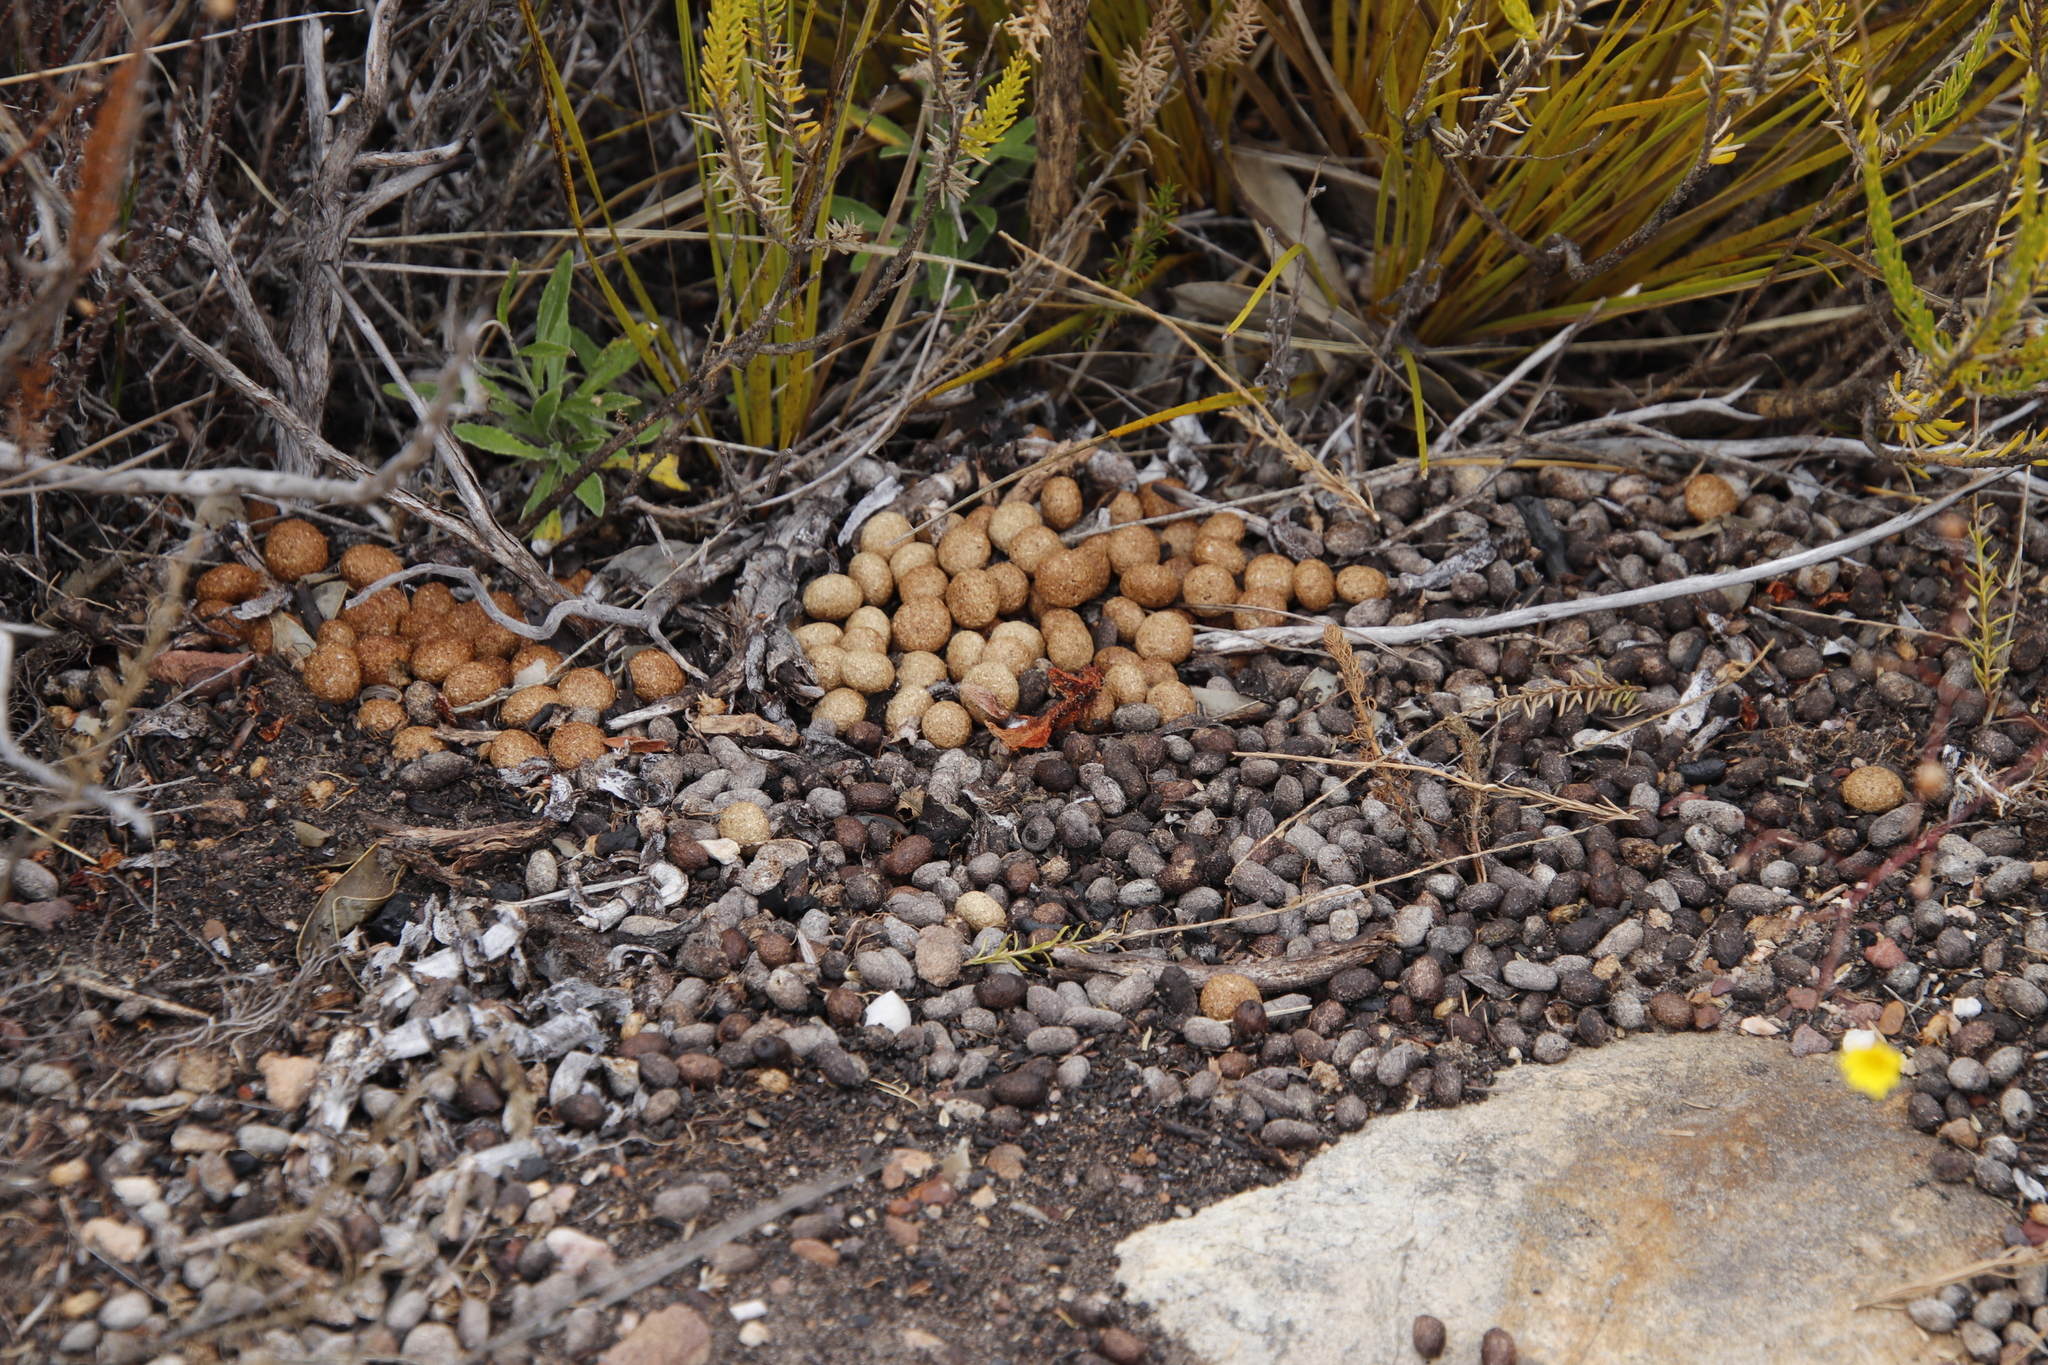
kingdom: Animalia
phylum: Chordata
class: Mammalia
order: Lagomorpha
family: Leporidae
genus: Pronolagus
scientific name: Pronolagus saundersiae
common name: Hewitt's red rock hare
